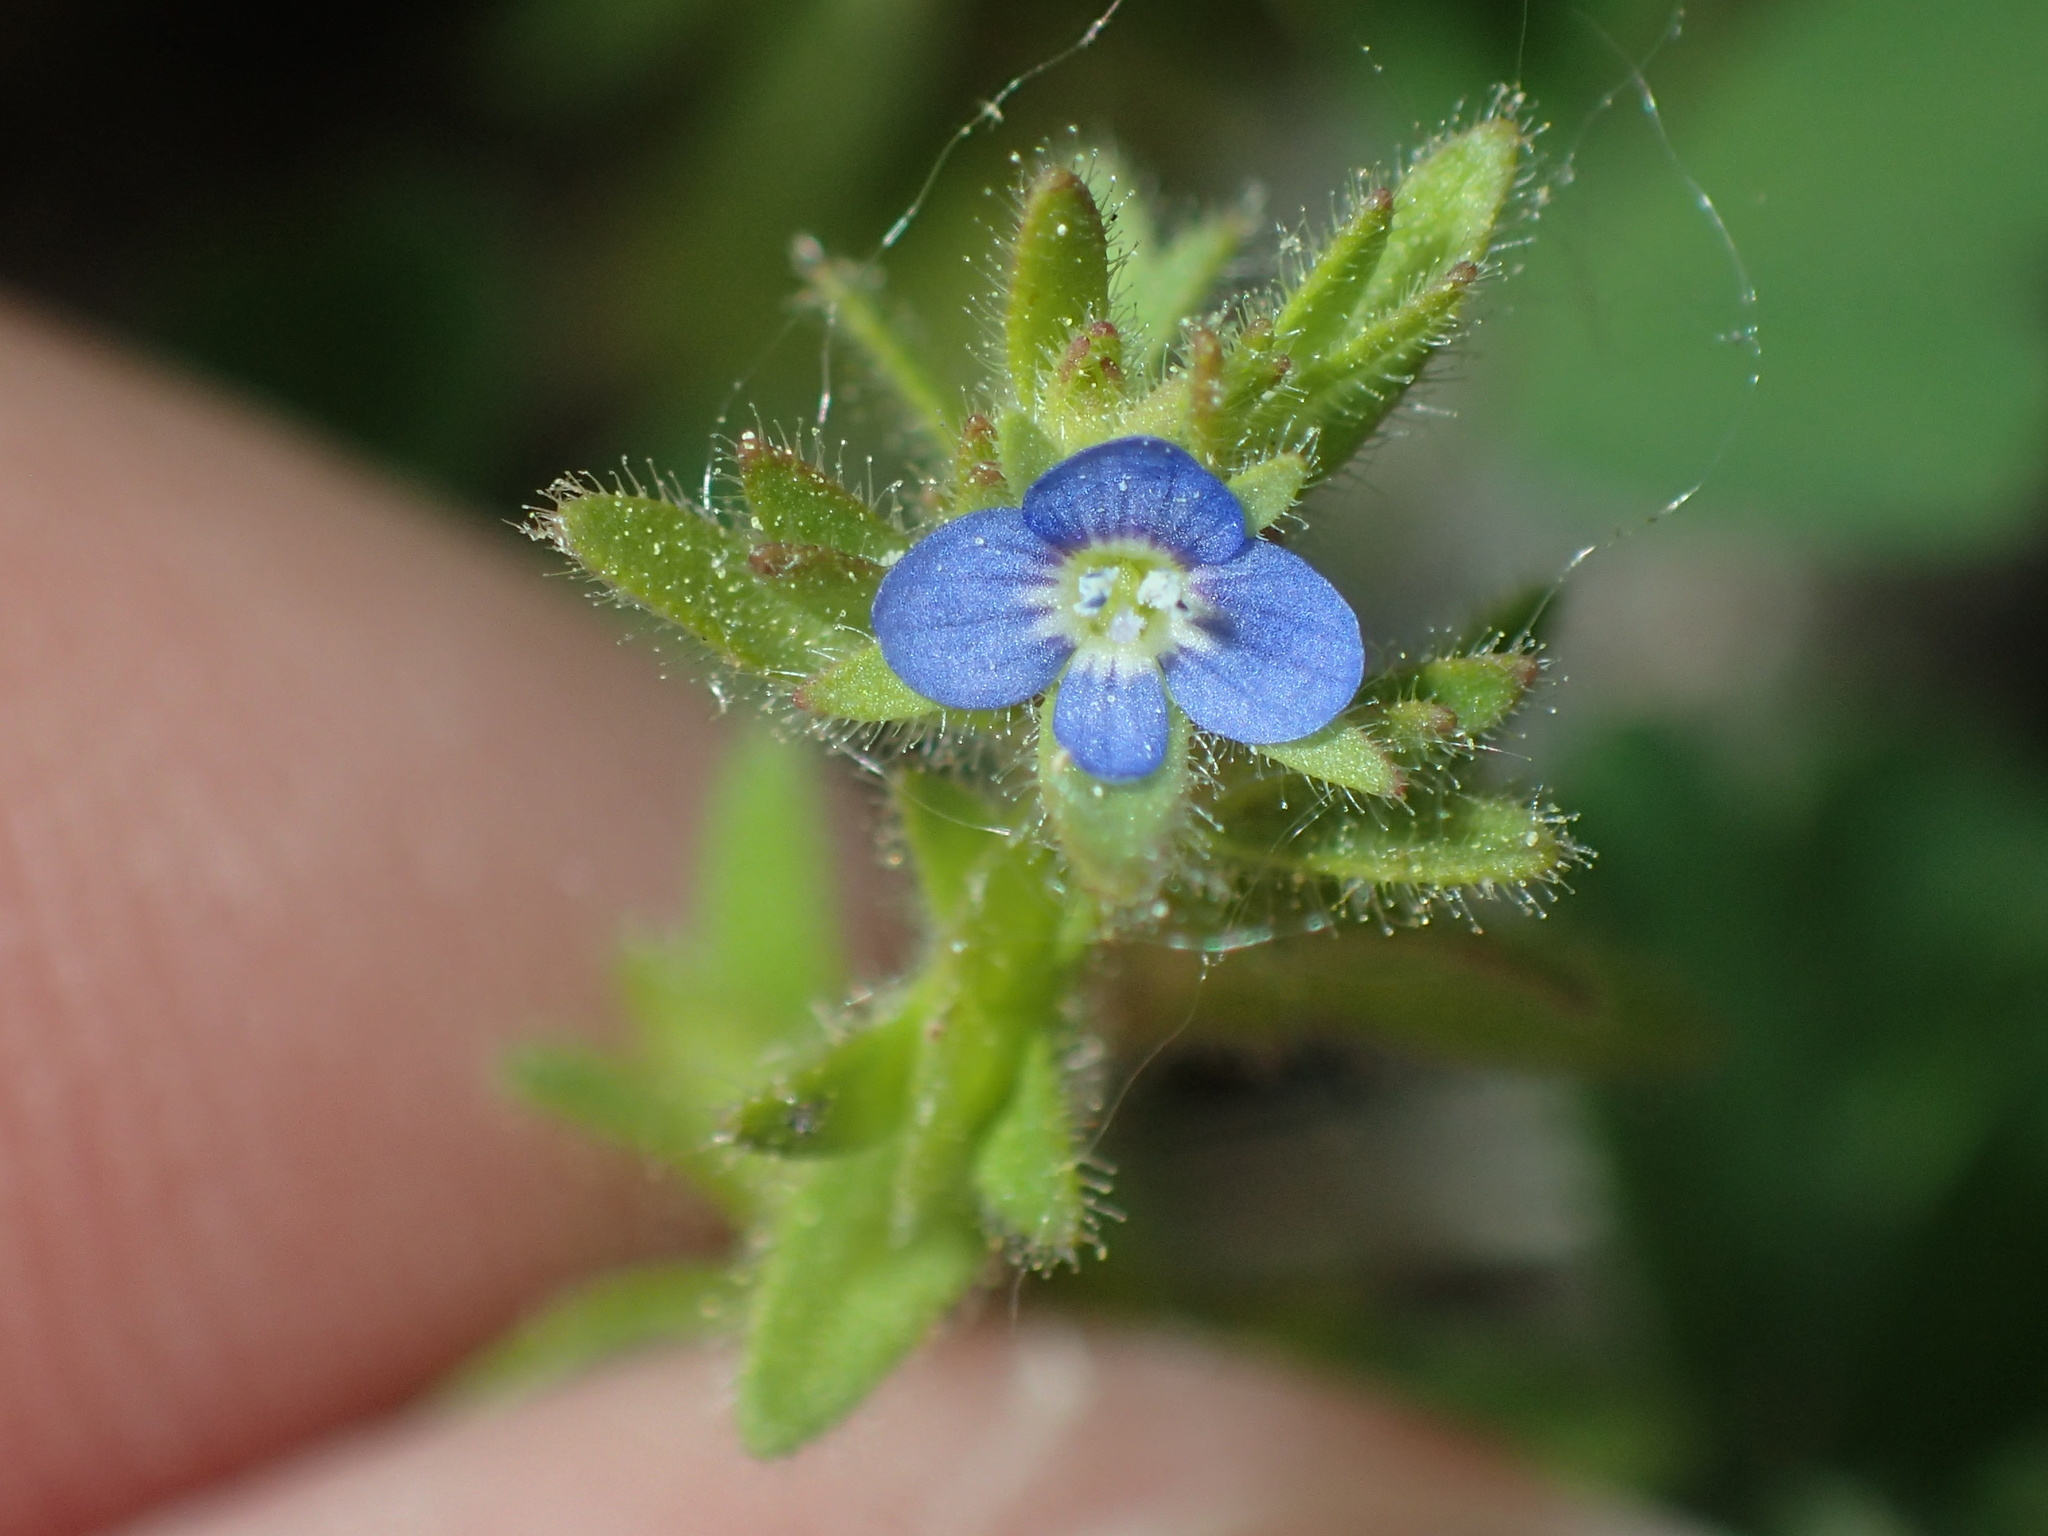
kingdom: Plantae
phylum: Tracheophyta
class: Magnoliopsida
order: Lamiales
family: Plantaginaceae
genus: Veronica
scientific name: Veronica arvensis
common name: Corn speedwell
